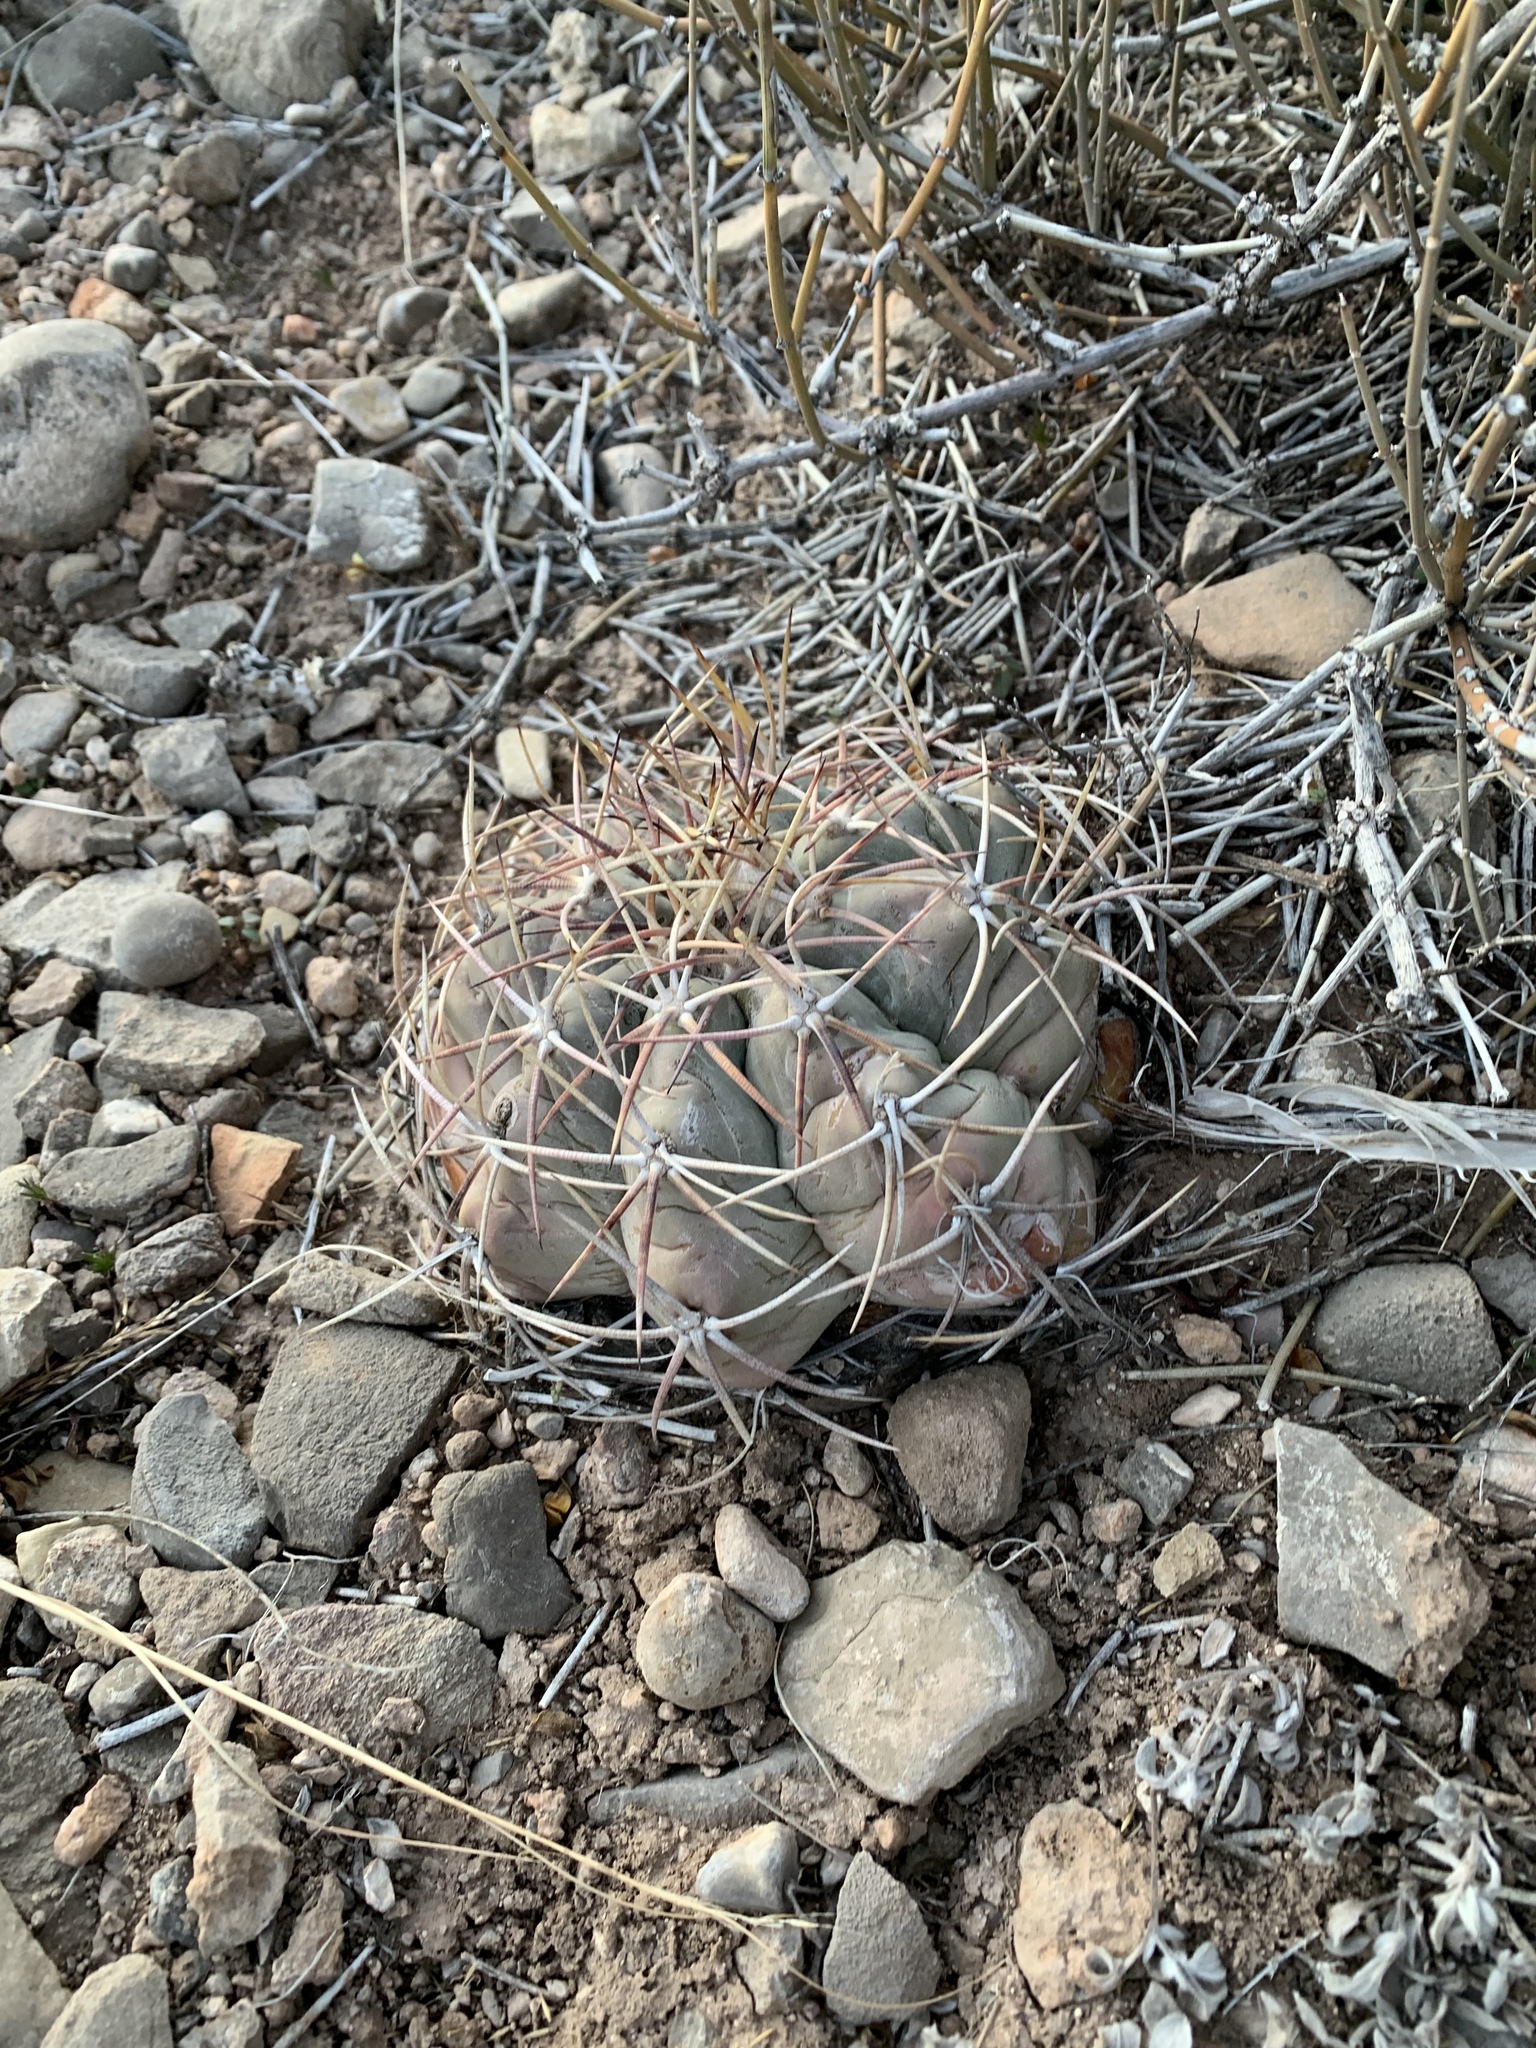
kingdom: Plantae
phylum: Tracheophyta
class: Magnoliopsida
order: Caryophyllales
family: Cactaceae
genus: Echinocactus
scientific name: Echinocactus horizonthalonius
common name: Devilshead
